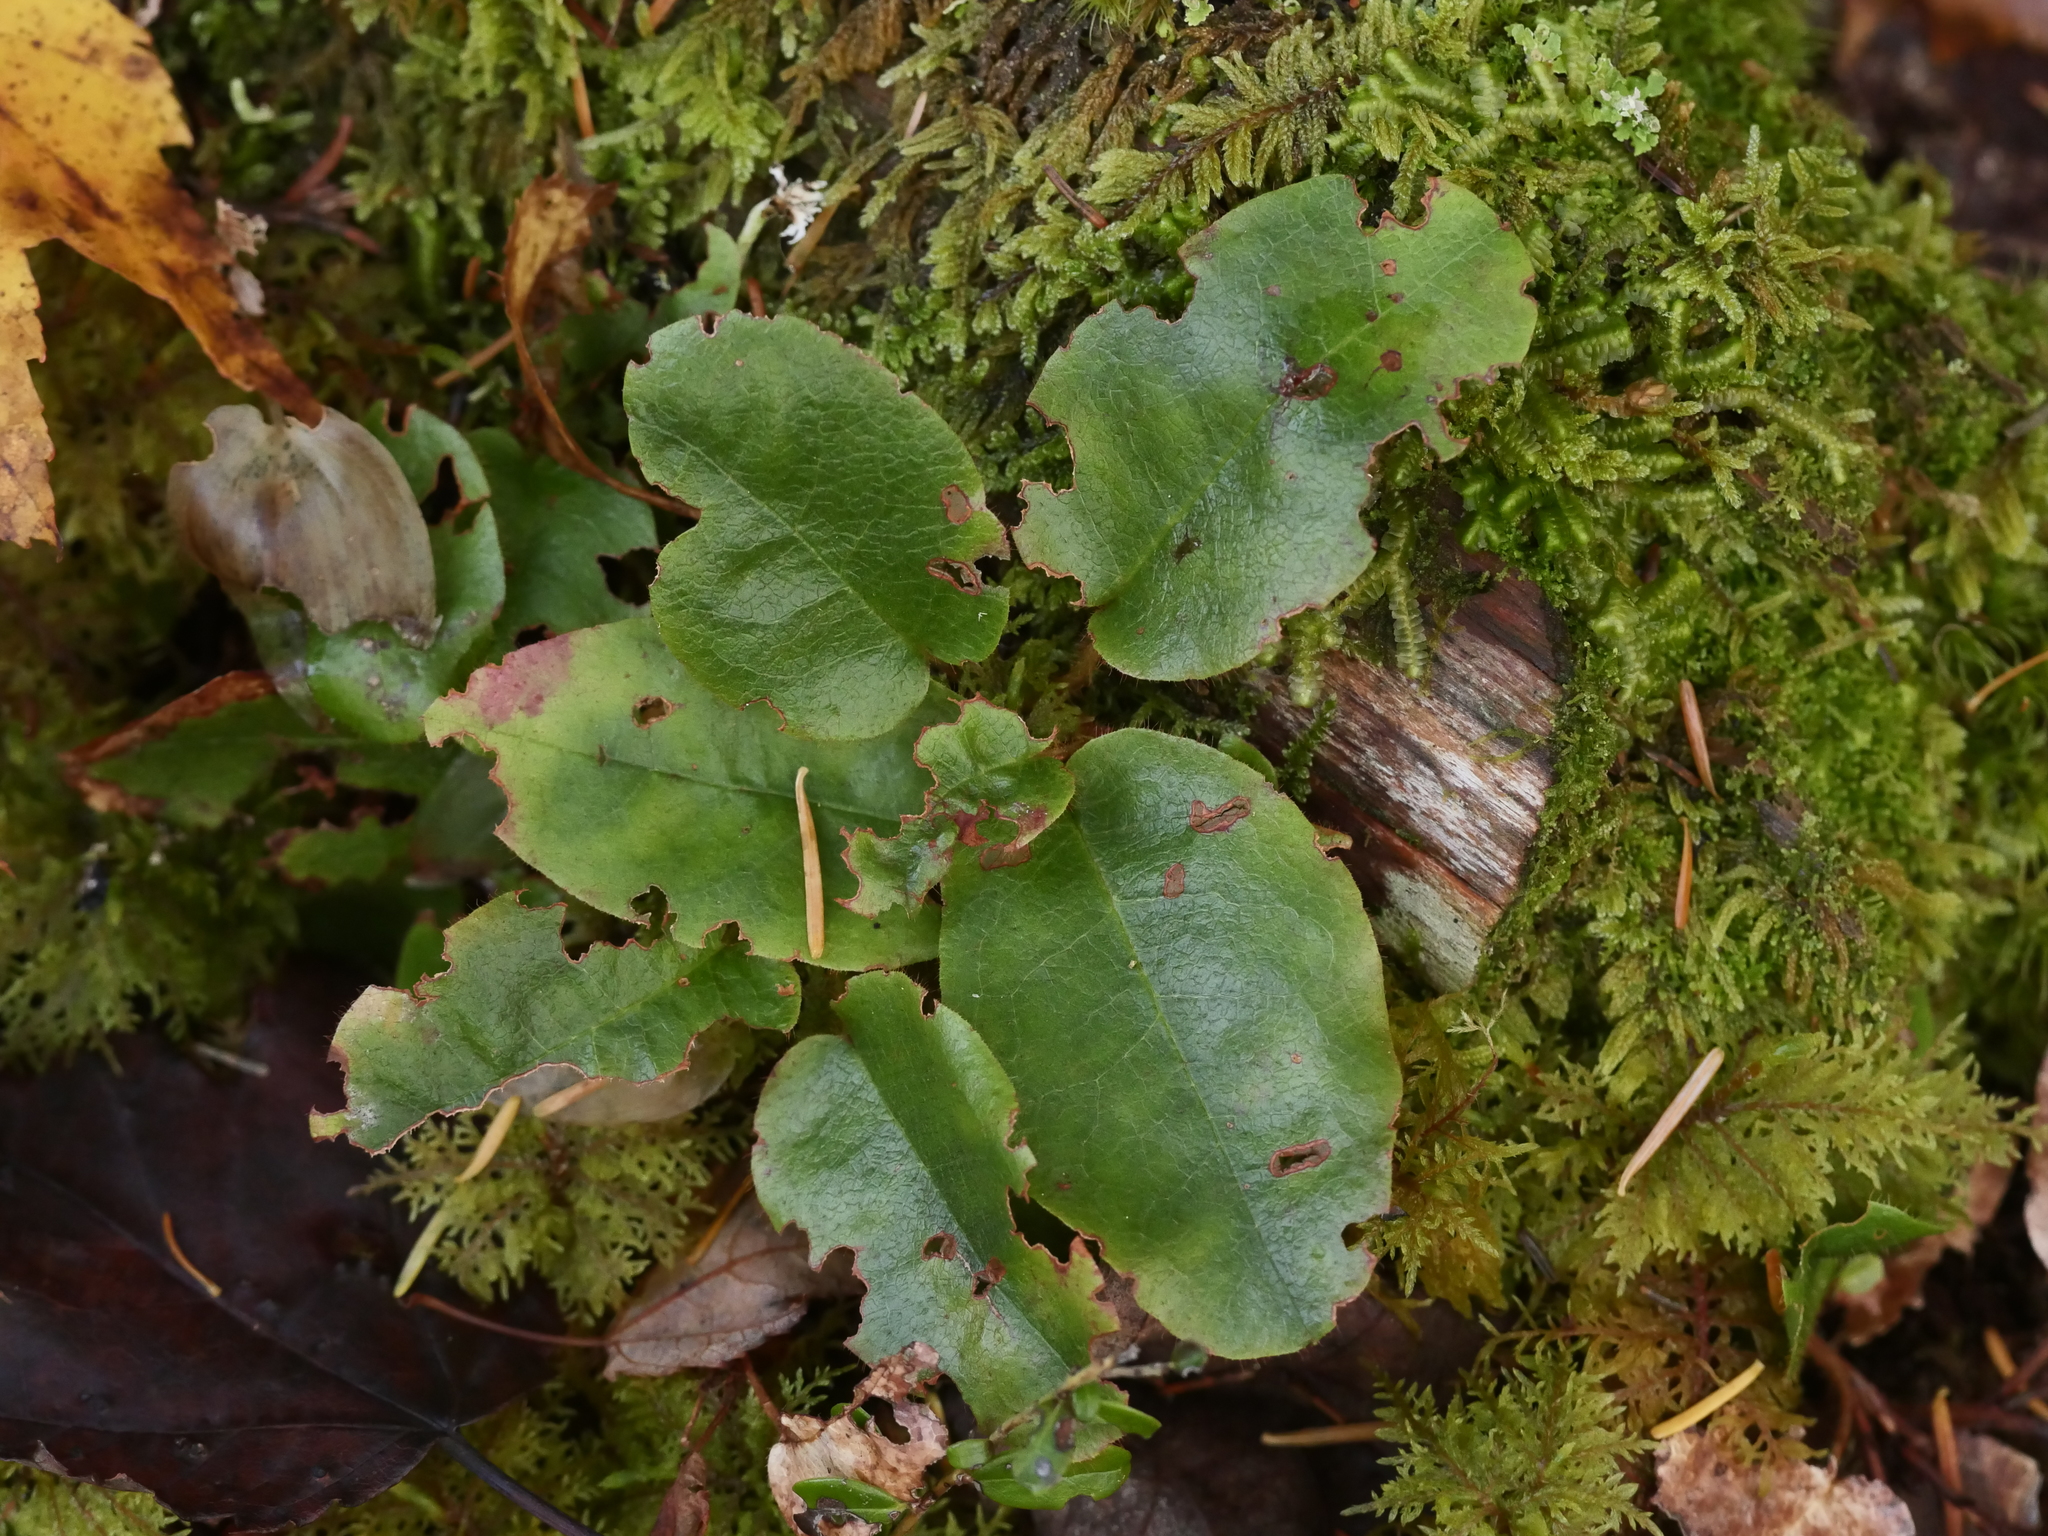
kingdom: Plantae
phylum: Tracheophyta
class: Magnoliopsida
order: Ericales
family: Ericaceae
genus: Epigaea
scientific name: Epigaea repens
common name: Gravelroot
